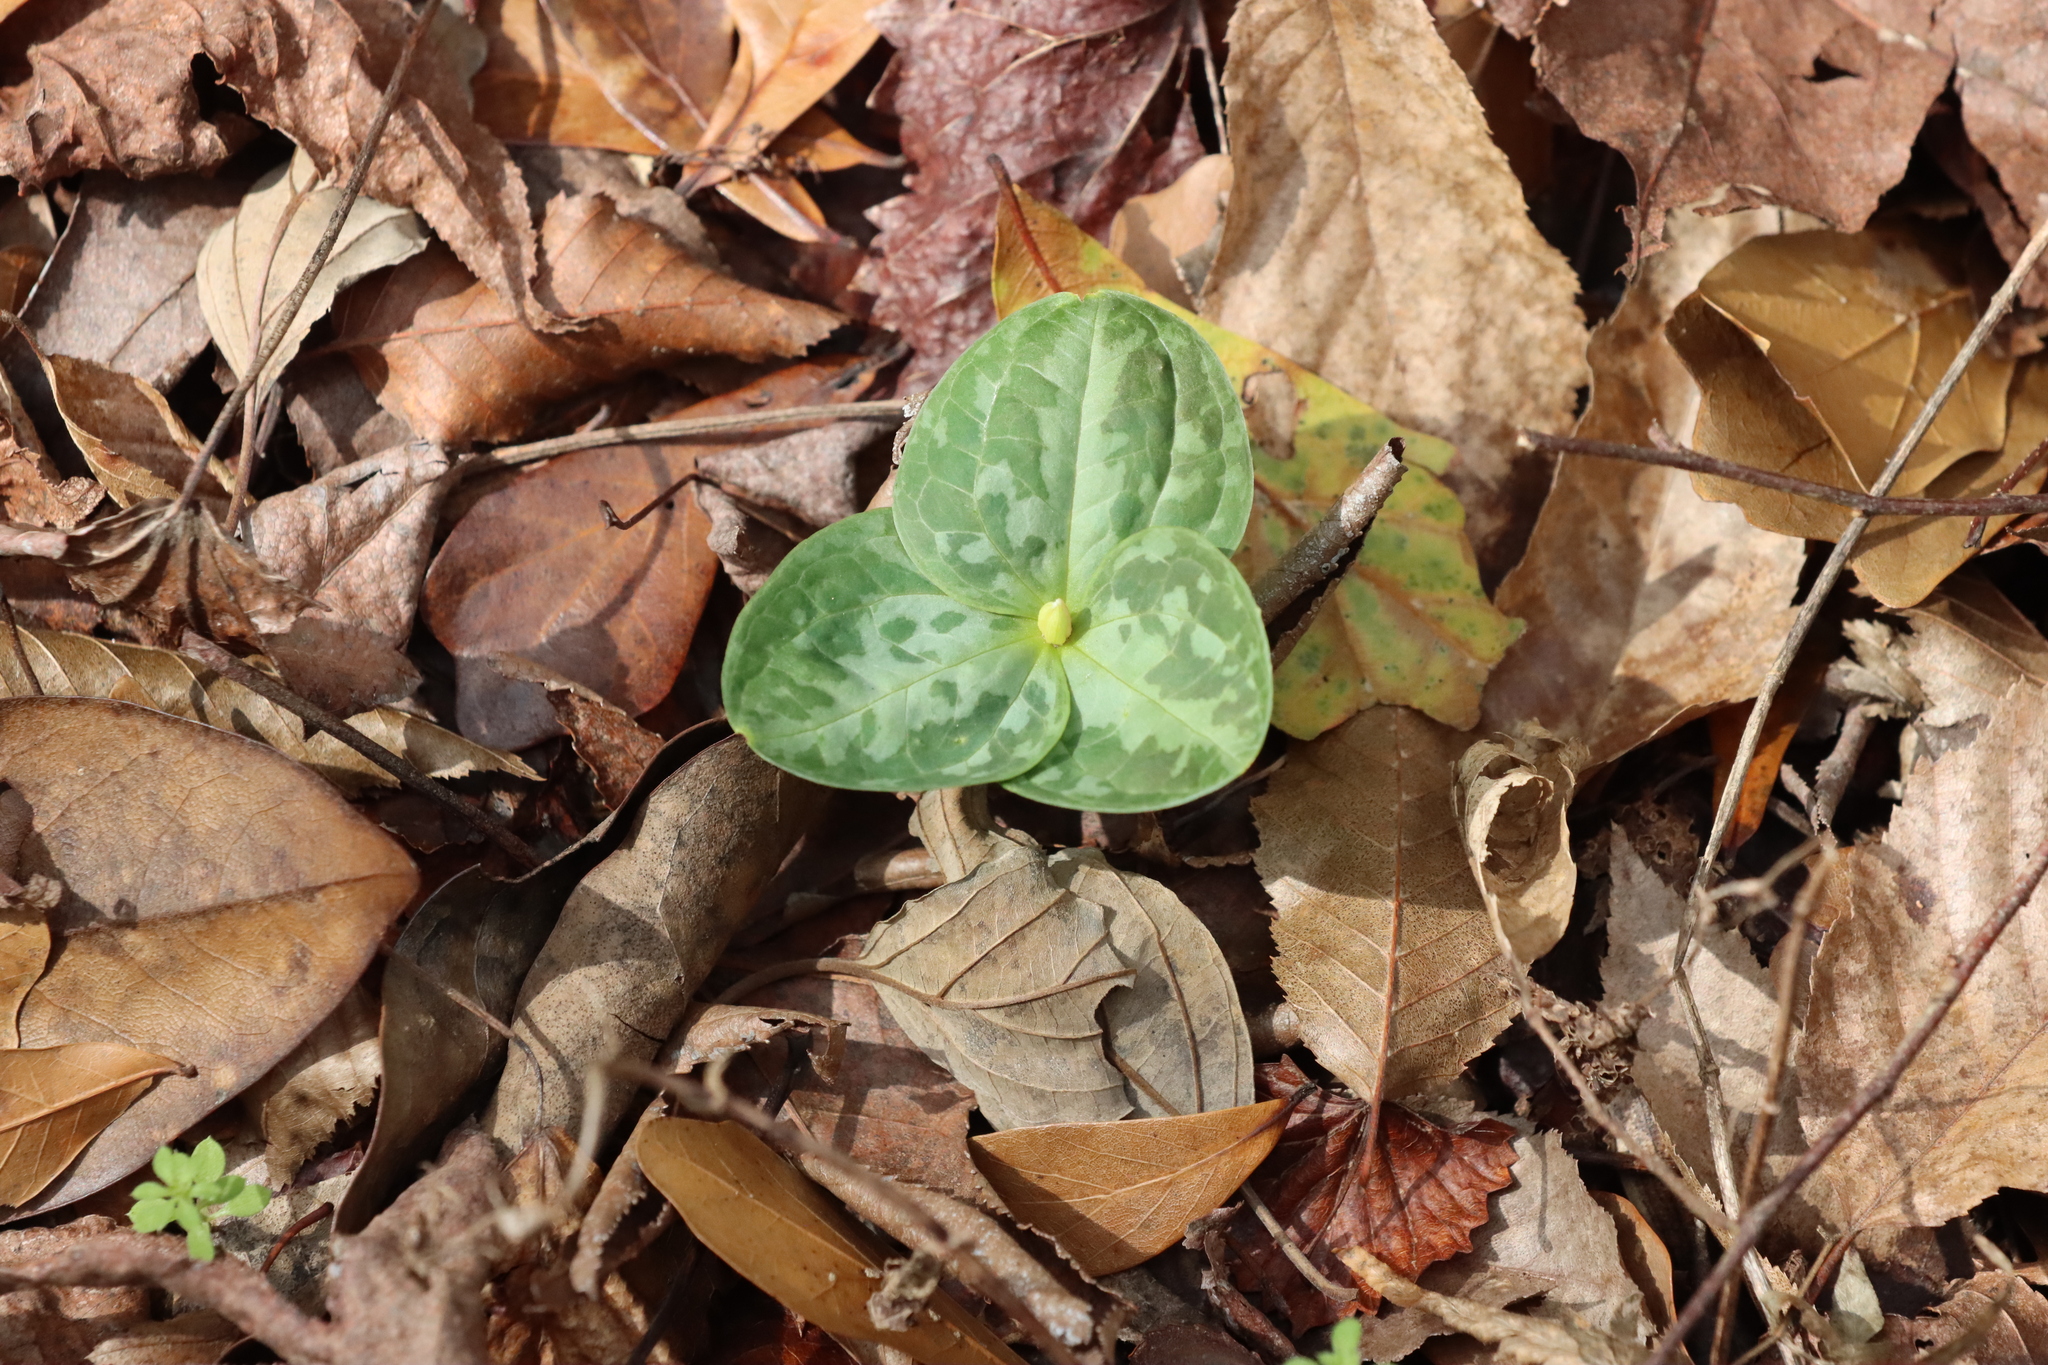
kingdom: Plantae
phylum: Tracheophyta
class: Liliopsida
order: Liliales
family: Melanthiaceae
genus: Trillium
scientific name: Trillium foetidissimum
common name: Mississippi river trillium
